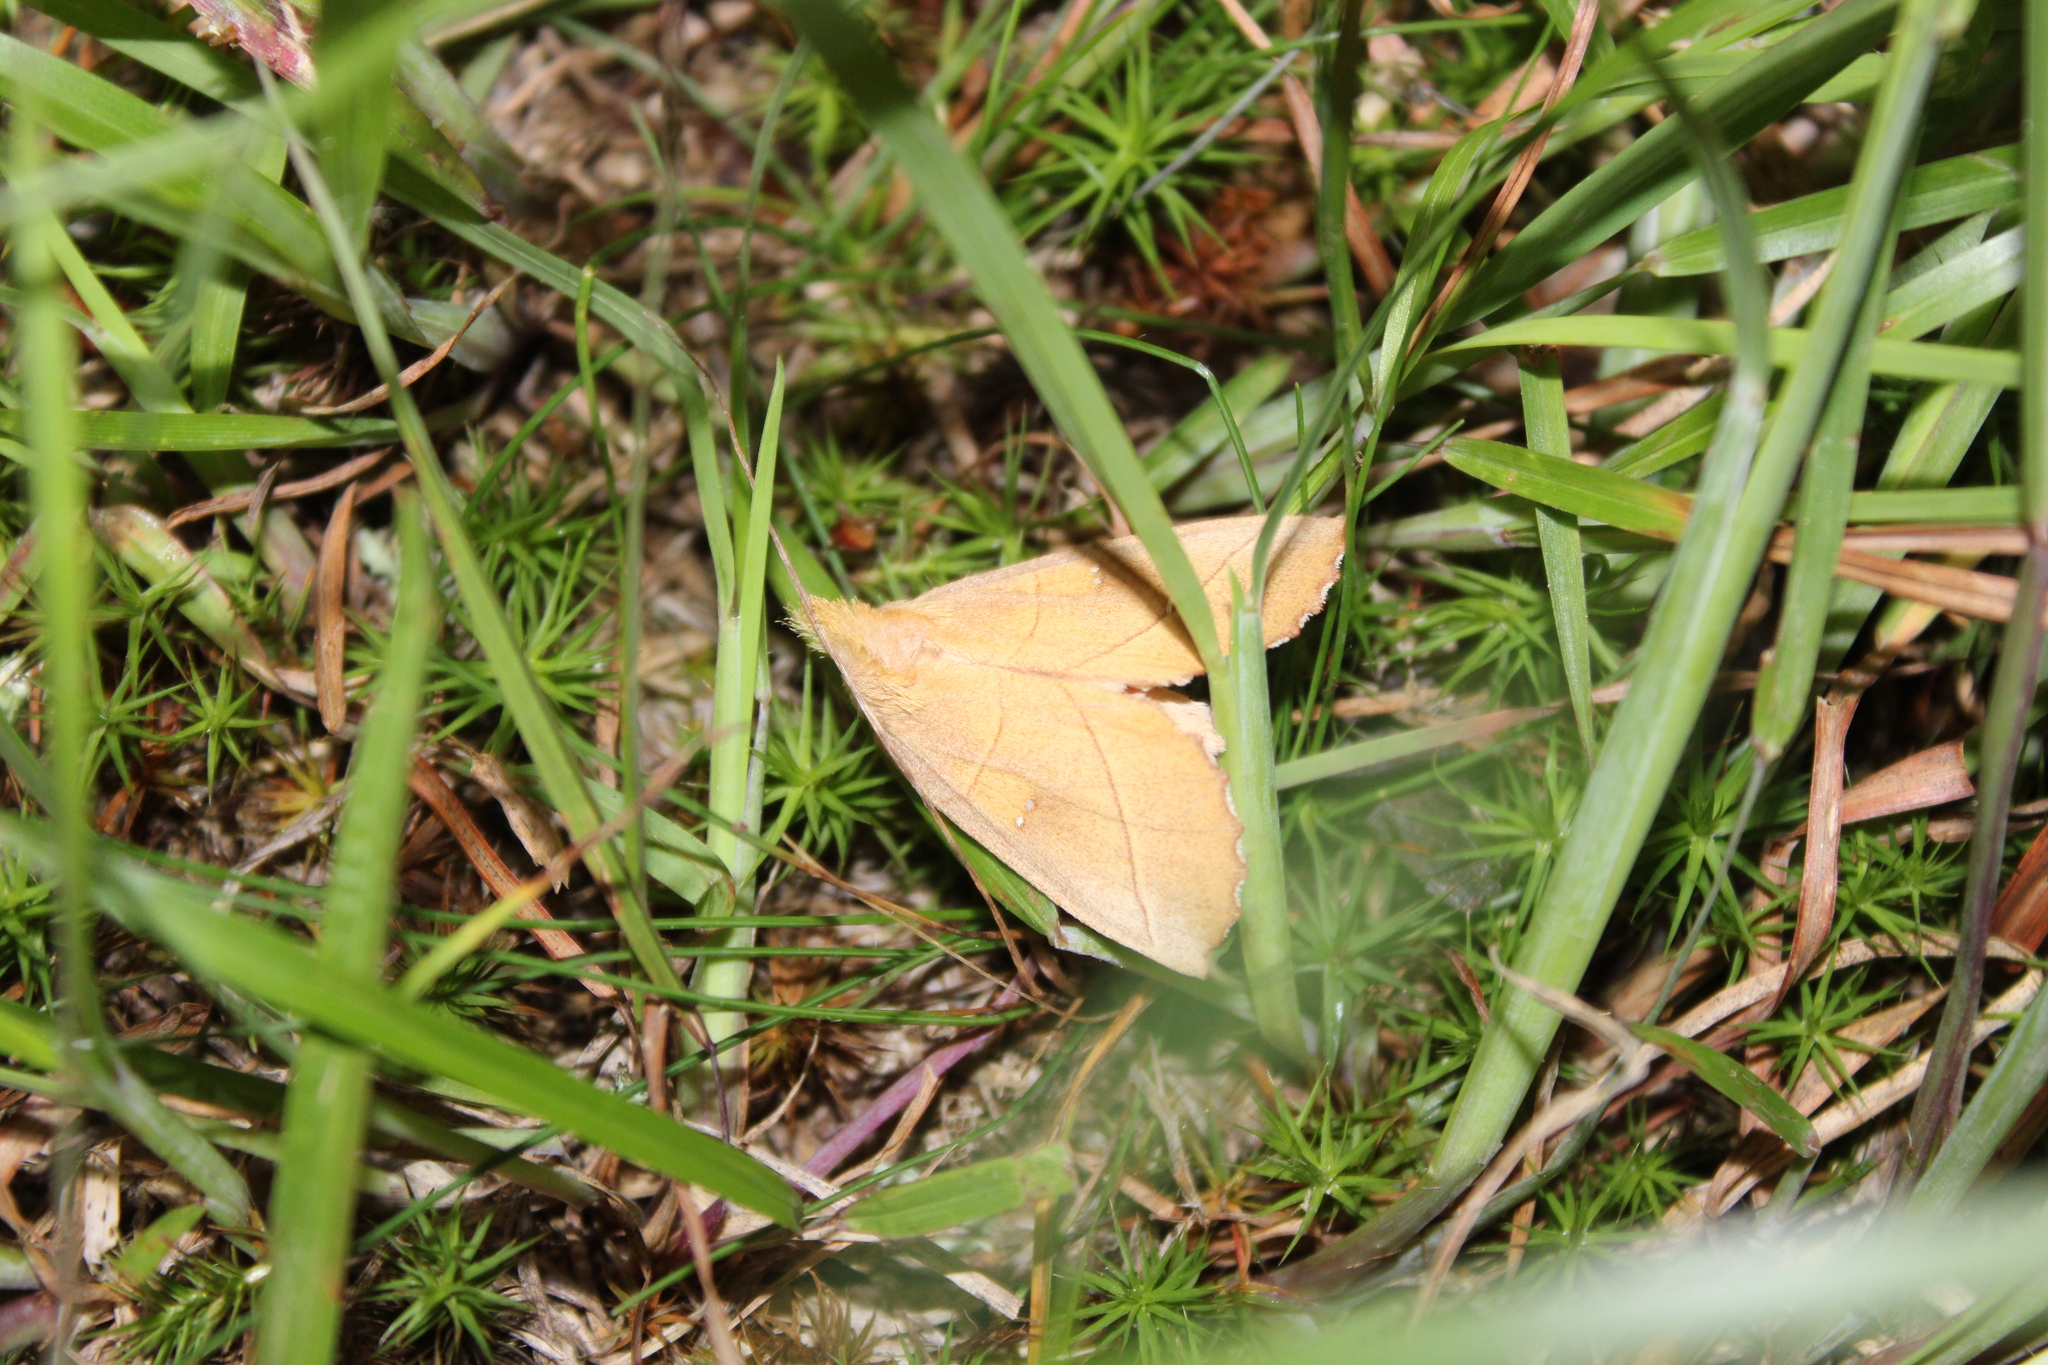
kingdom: Animalia
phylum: Arthropoda
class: Insecta
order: Lepidoptera
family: Notodontidae
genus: Nadata
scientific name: Nadata gibbosa
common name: White-dotted prominent
